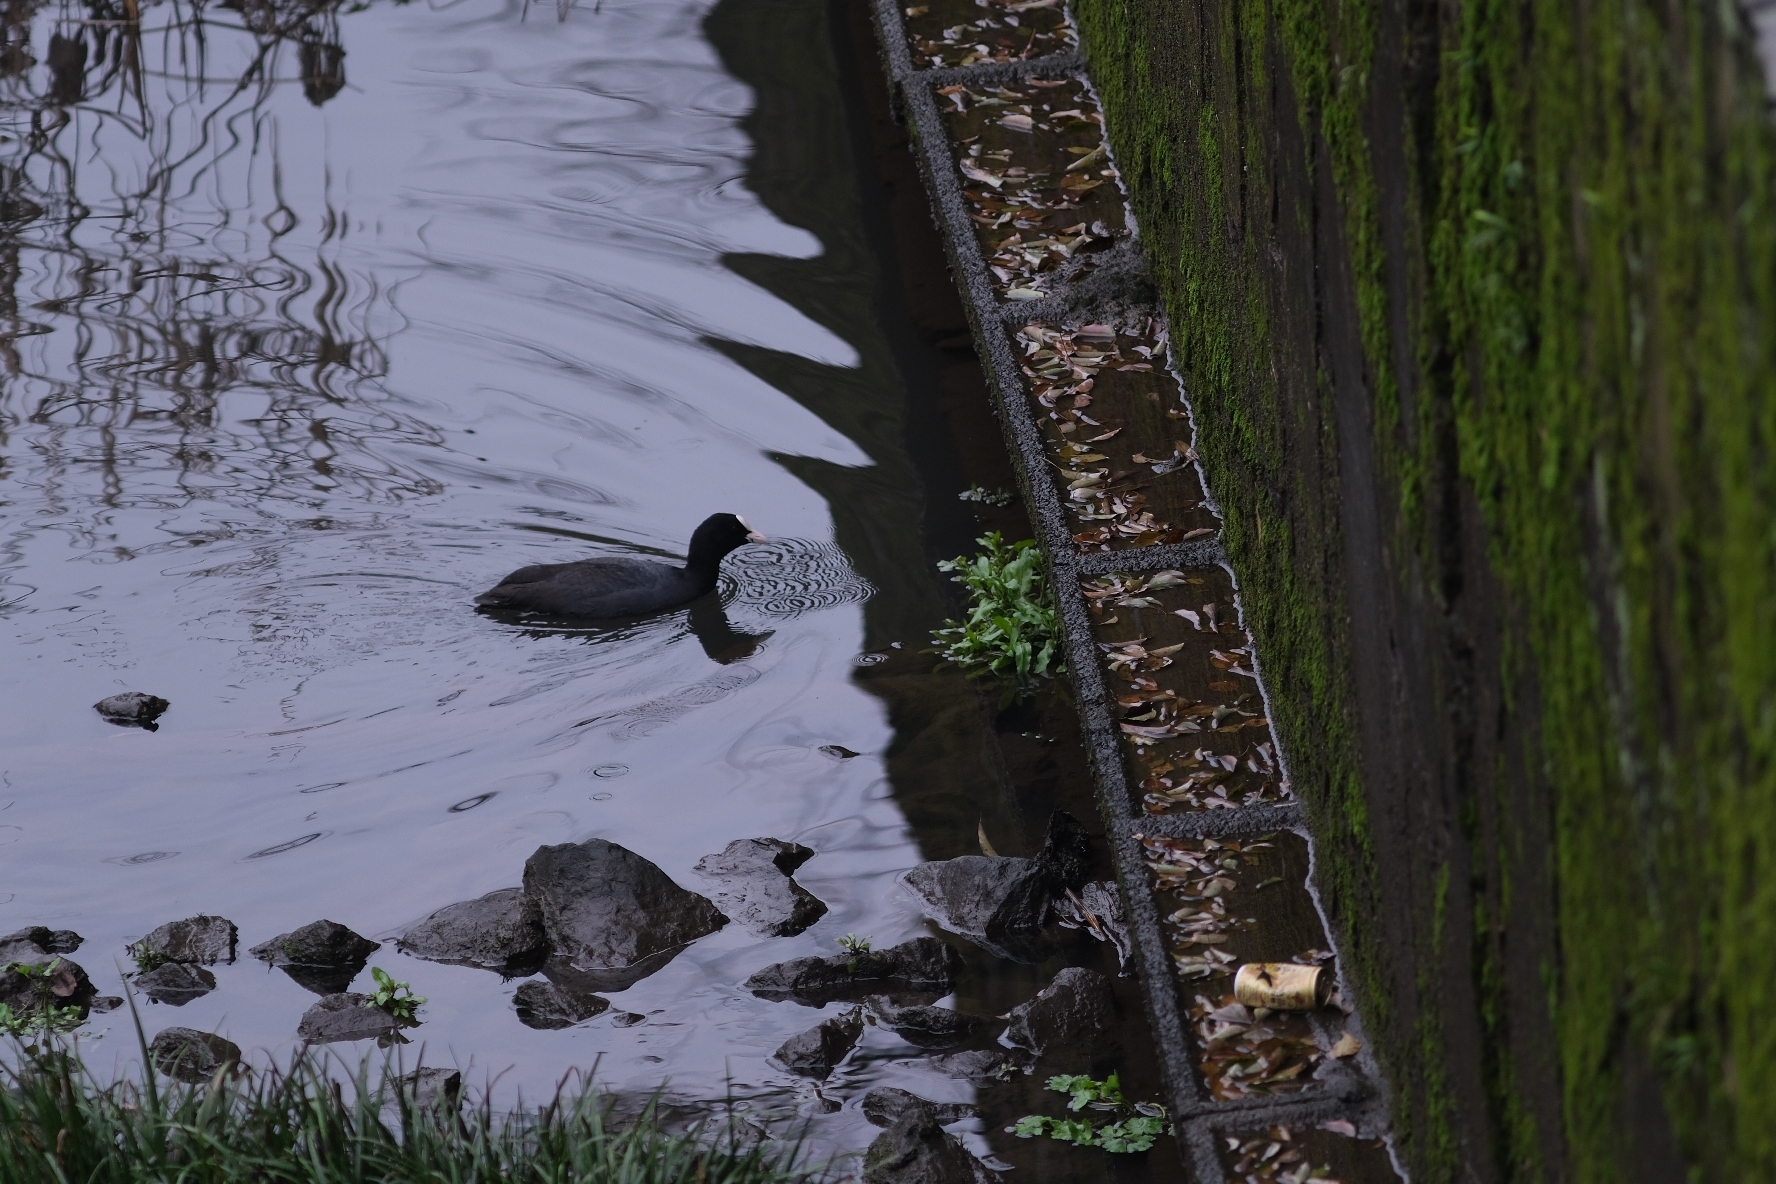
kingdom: Animalia
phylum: Chordata
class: Aves
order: Gruiformes
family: Rallidae
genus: Fulica
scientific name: Fulica atra
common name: Eurasian coot
